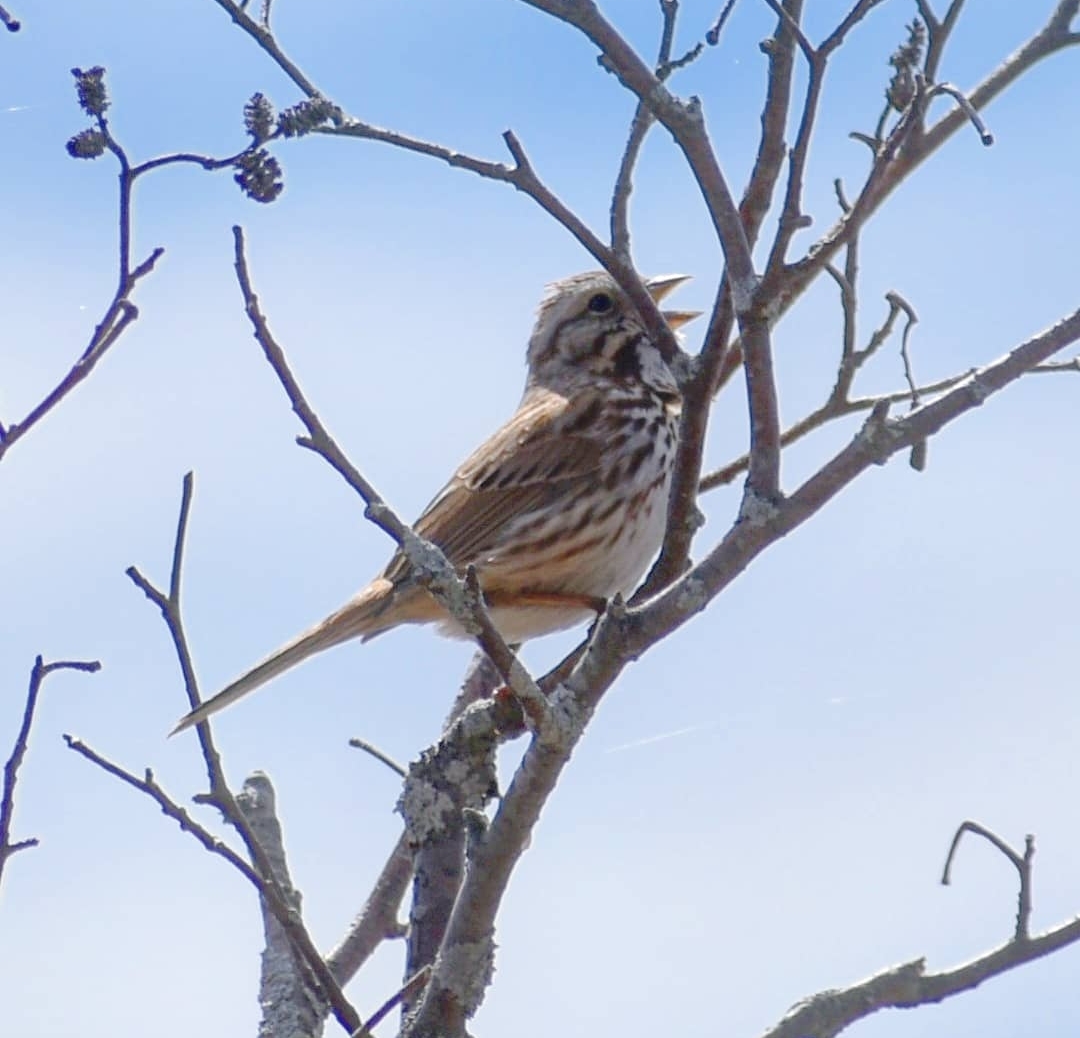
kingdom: Animalia
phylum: Chordata
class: Aves
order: Passeriformes
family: Passerellidae
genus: Melospiza
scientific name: Melospiza melodia
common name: Song sparrow
